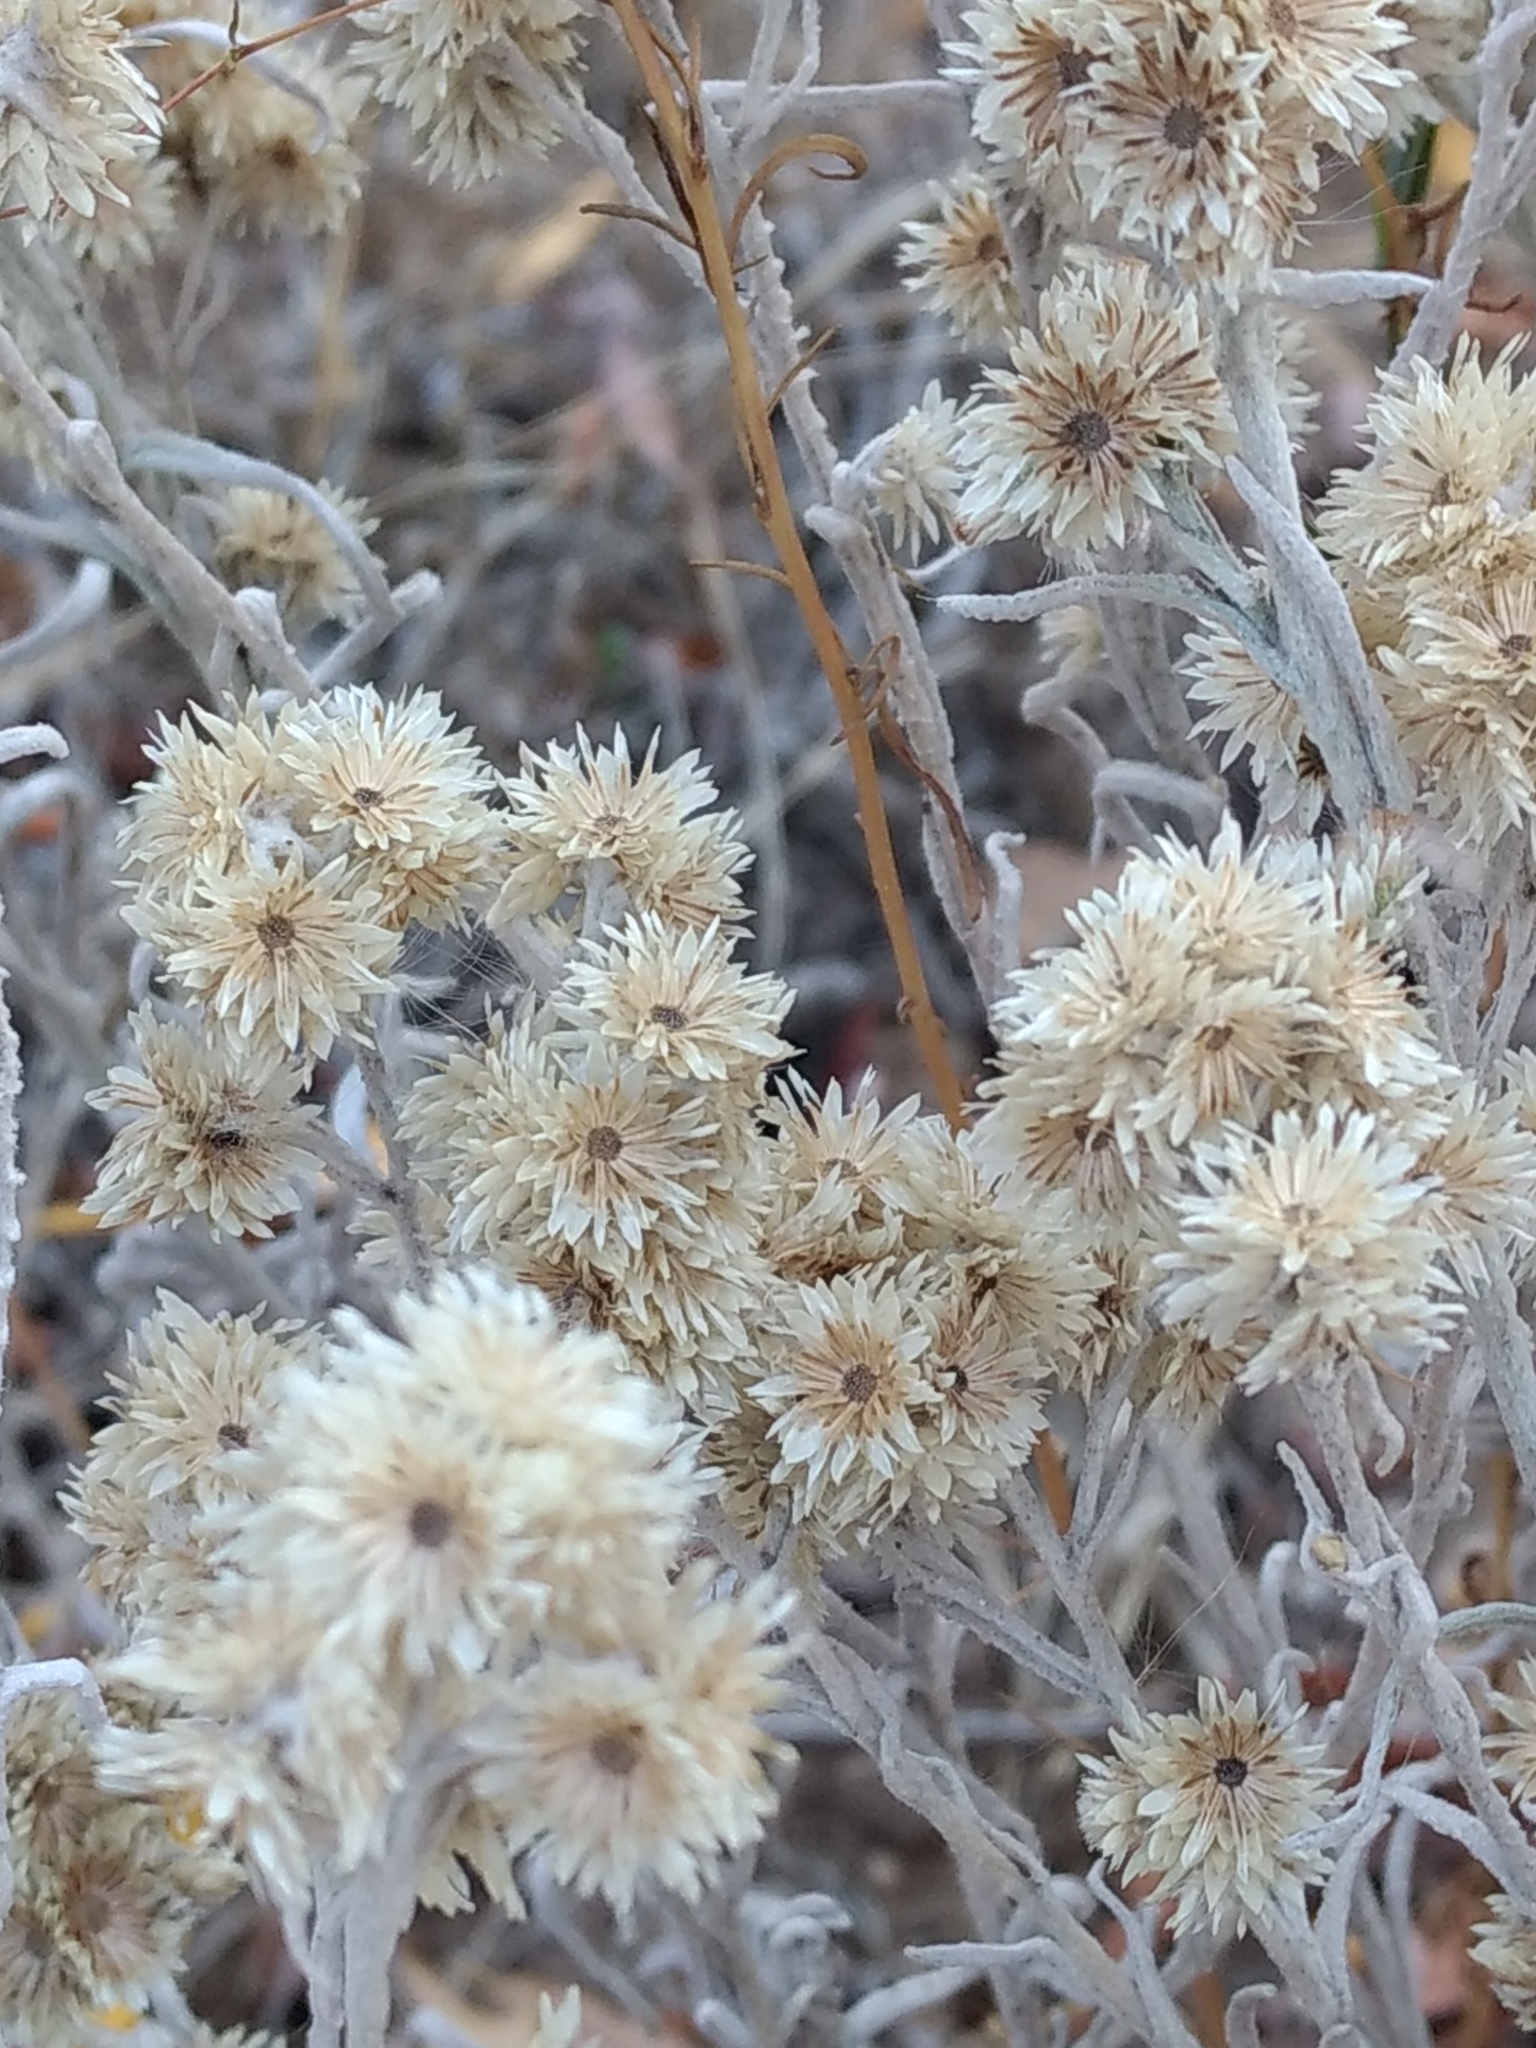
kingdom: Plantae
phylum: Tracheophyta
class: Magnoliopsida
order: Asterales
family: Asteraceae
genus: Pseudognaphalium
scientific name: Pseudognaphalium microcephalum
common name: San diego rabbit-tobacco
